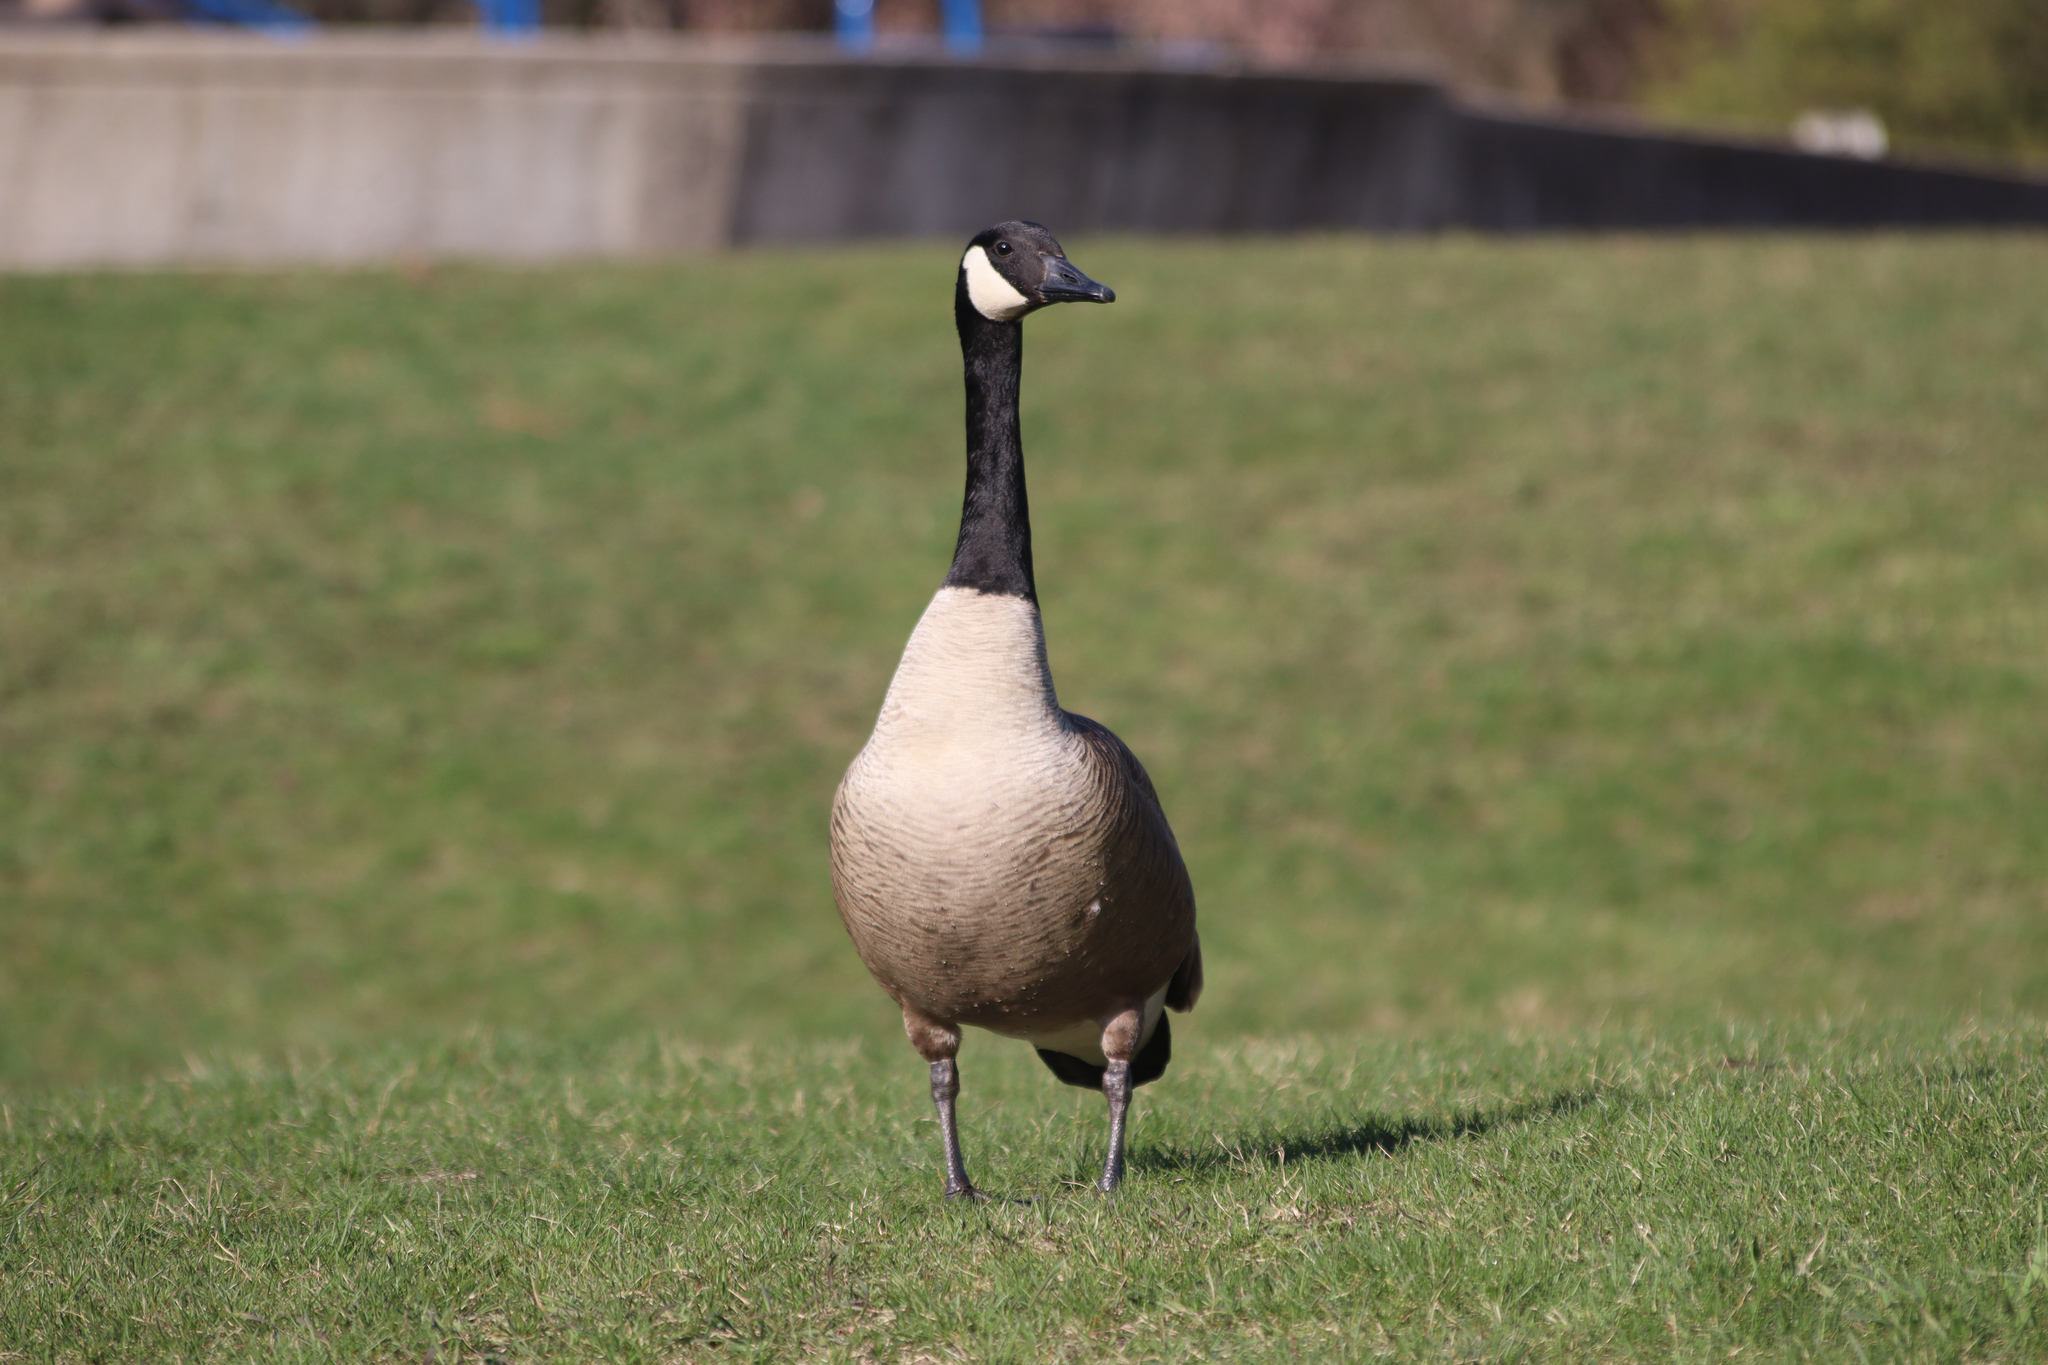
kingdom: Animalia
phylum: Chordata
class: Aves
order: Anseriformes
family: Anatidae
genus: Branta
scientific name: Branta canadensis
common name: Canada goose
